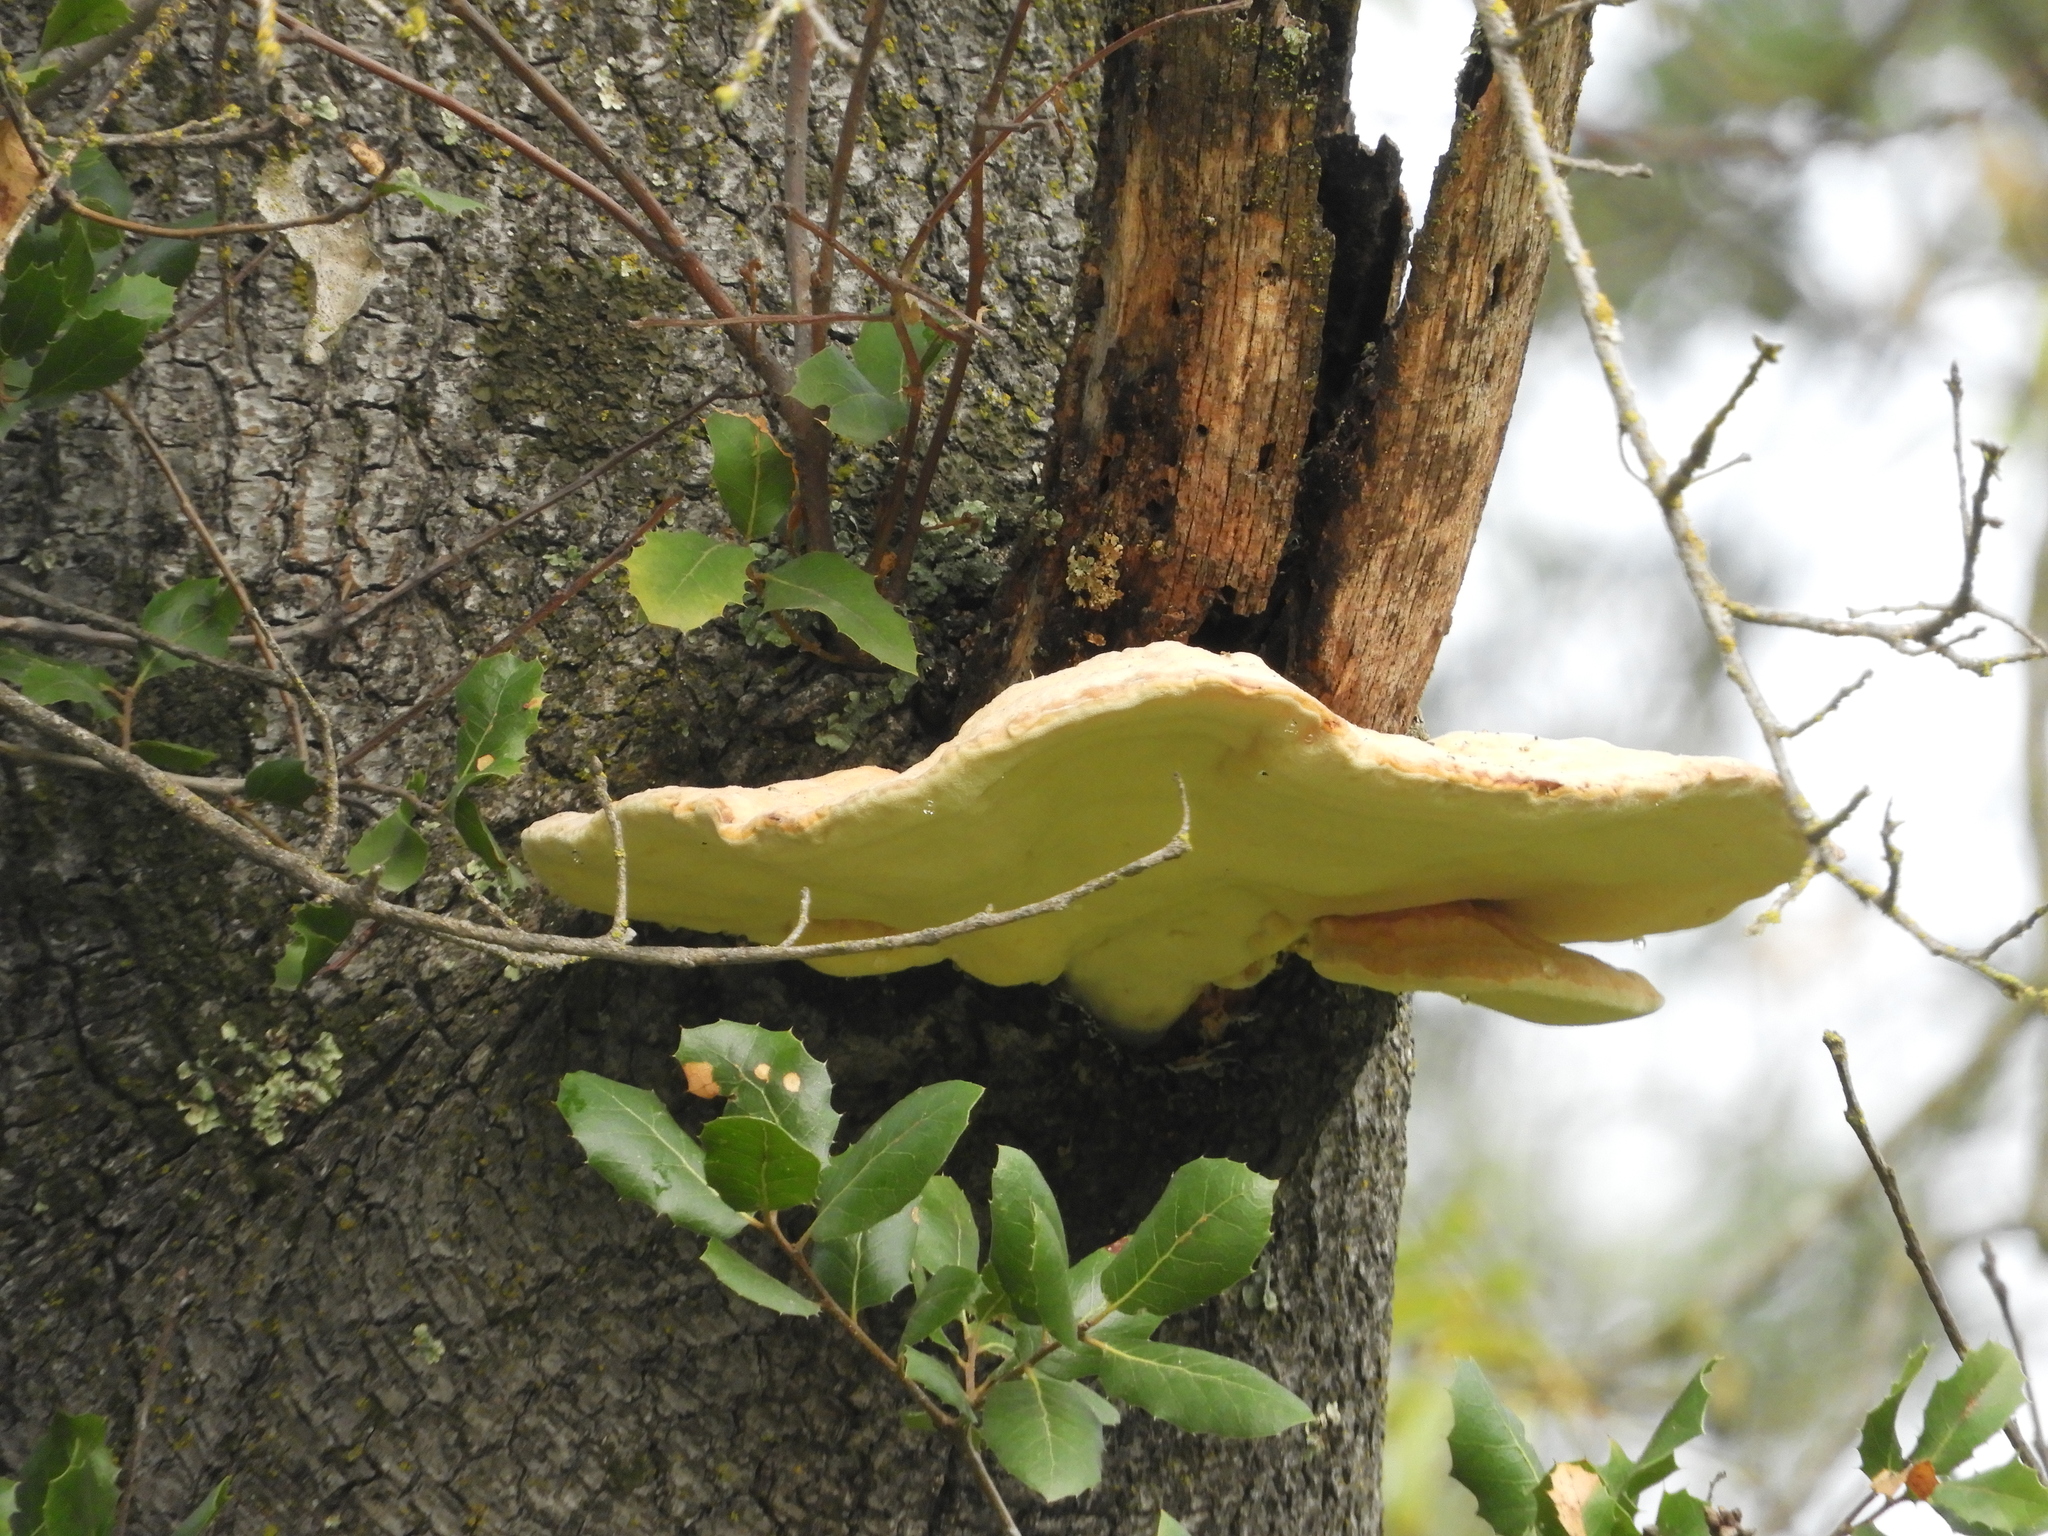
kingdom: Fungi
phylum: Basidiomycota
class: Agaricomycetes
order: Polyporales
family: Laetiporaceae
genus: Laetiporus
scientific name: Laetiporus gilbertsonii
